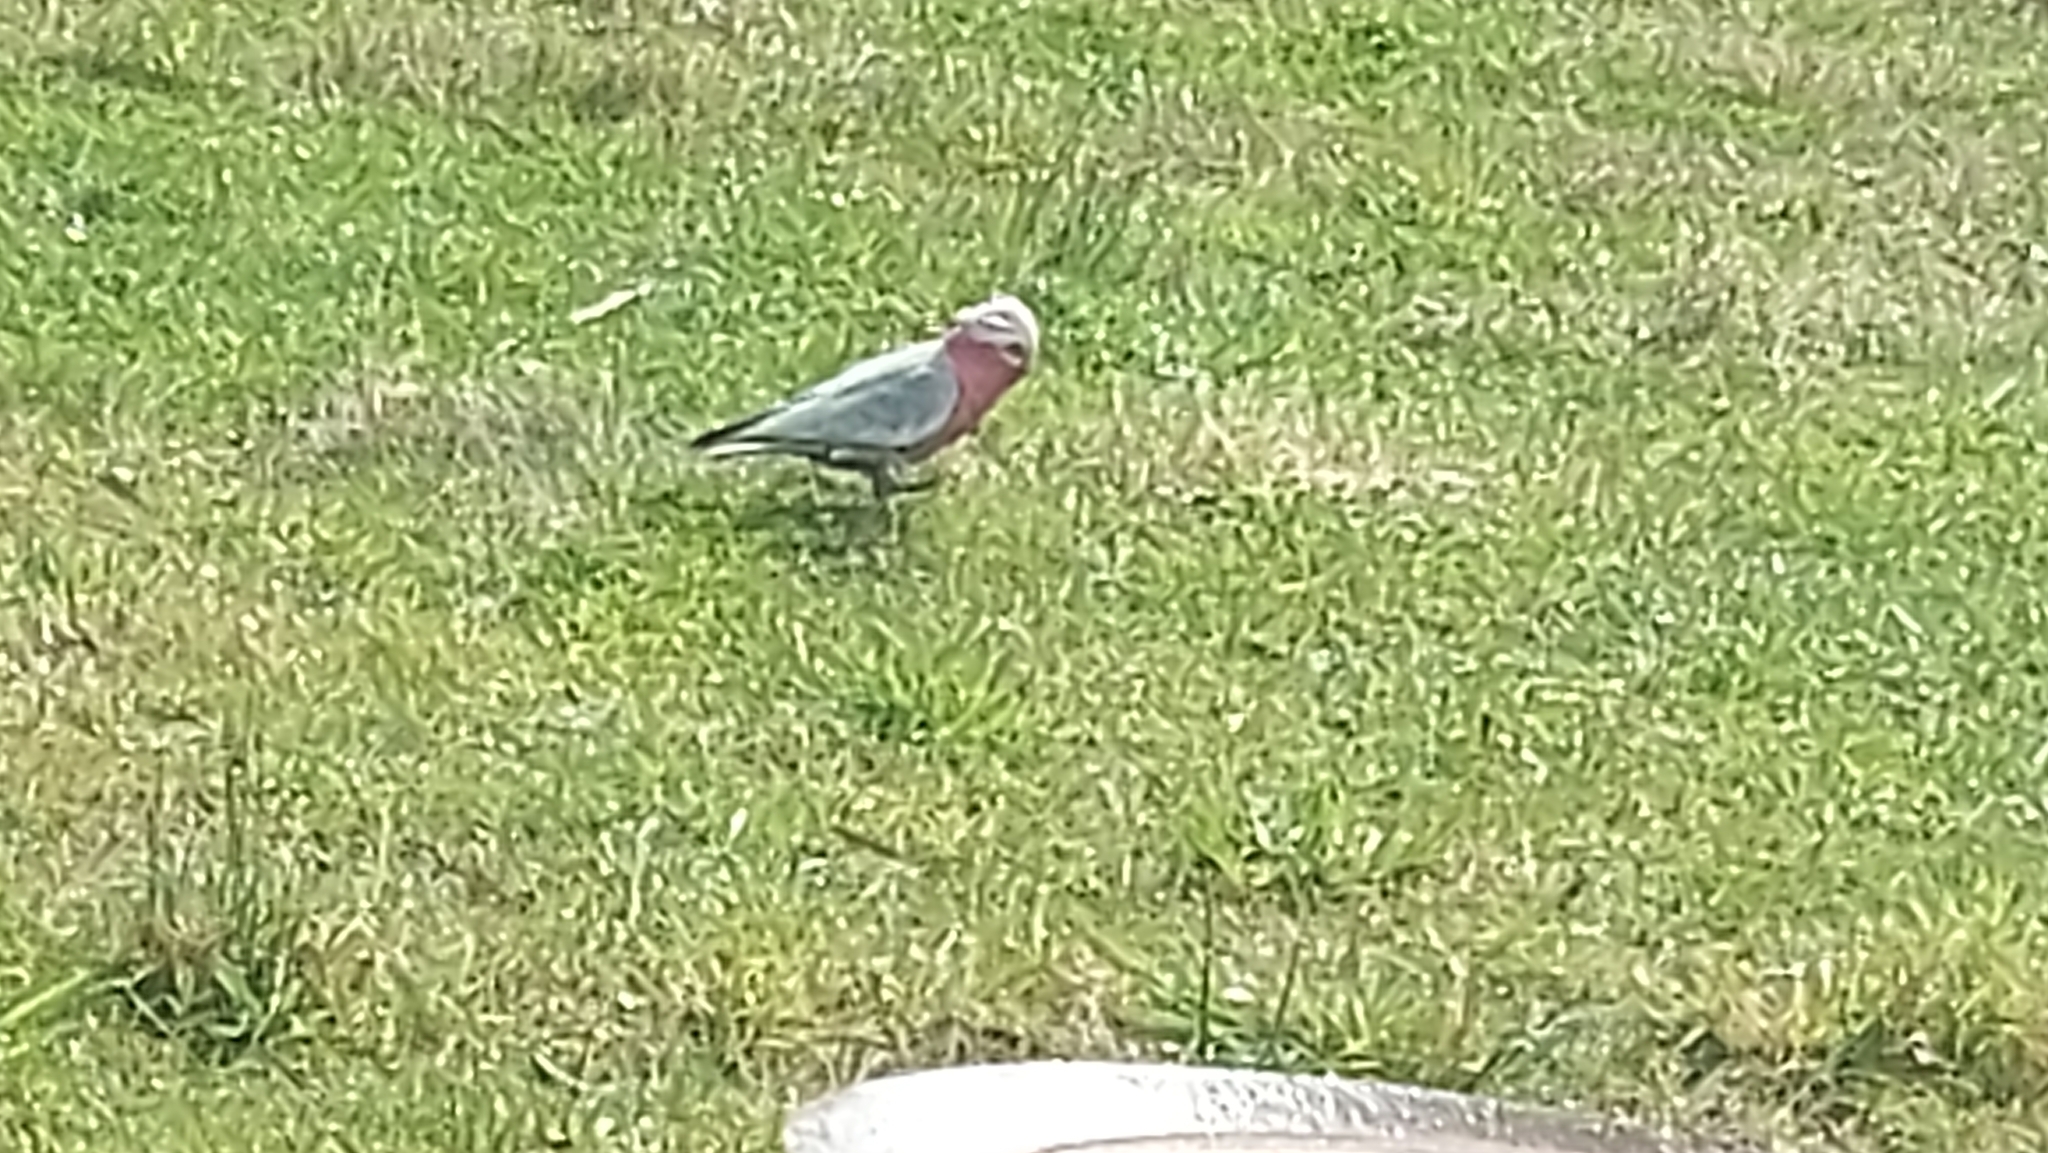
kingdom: Animalia
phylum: Chordata
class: Aves
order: Psittaciformes
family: Psittacidae
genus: Eolophus
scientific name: Eolophus roseicapilla
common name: Galah
